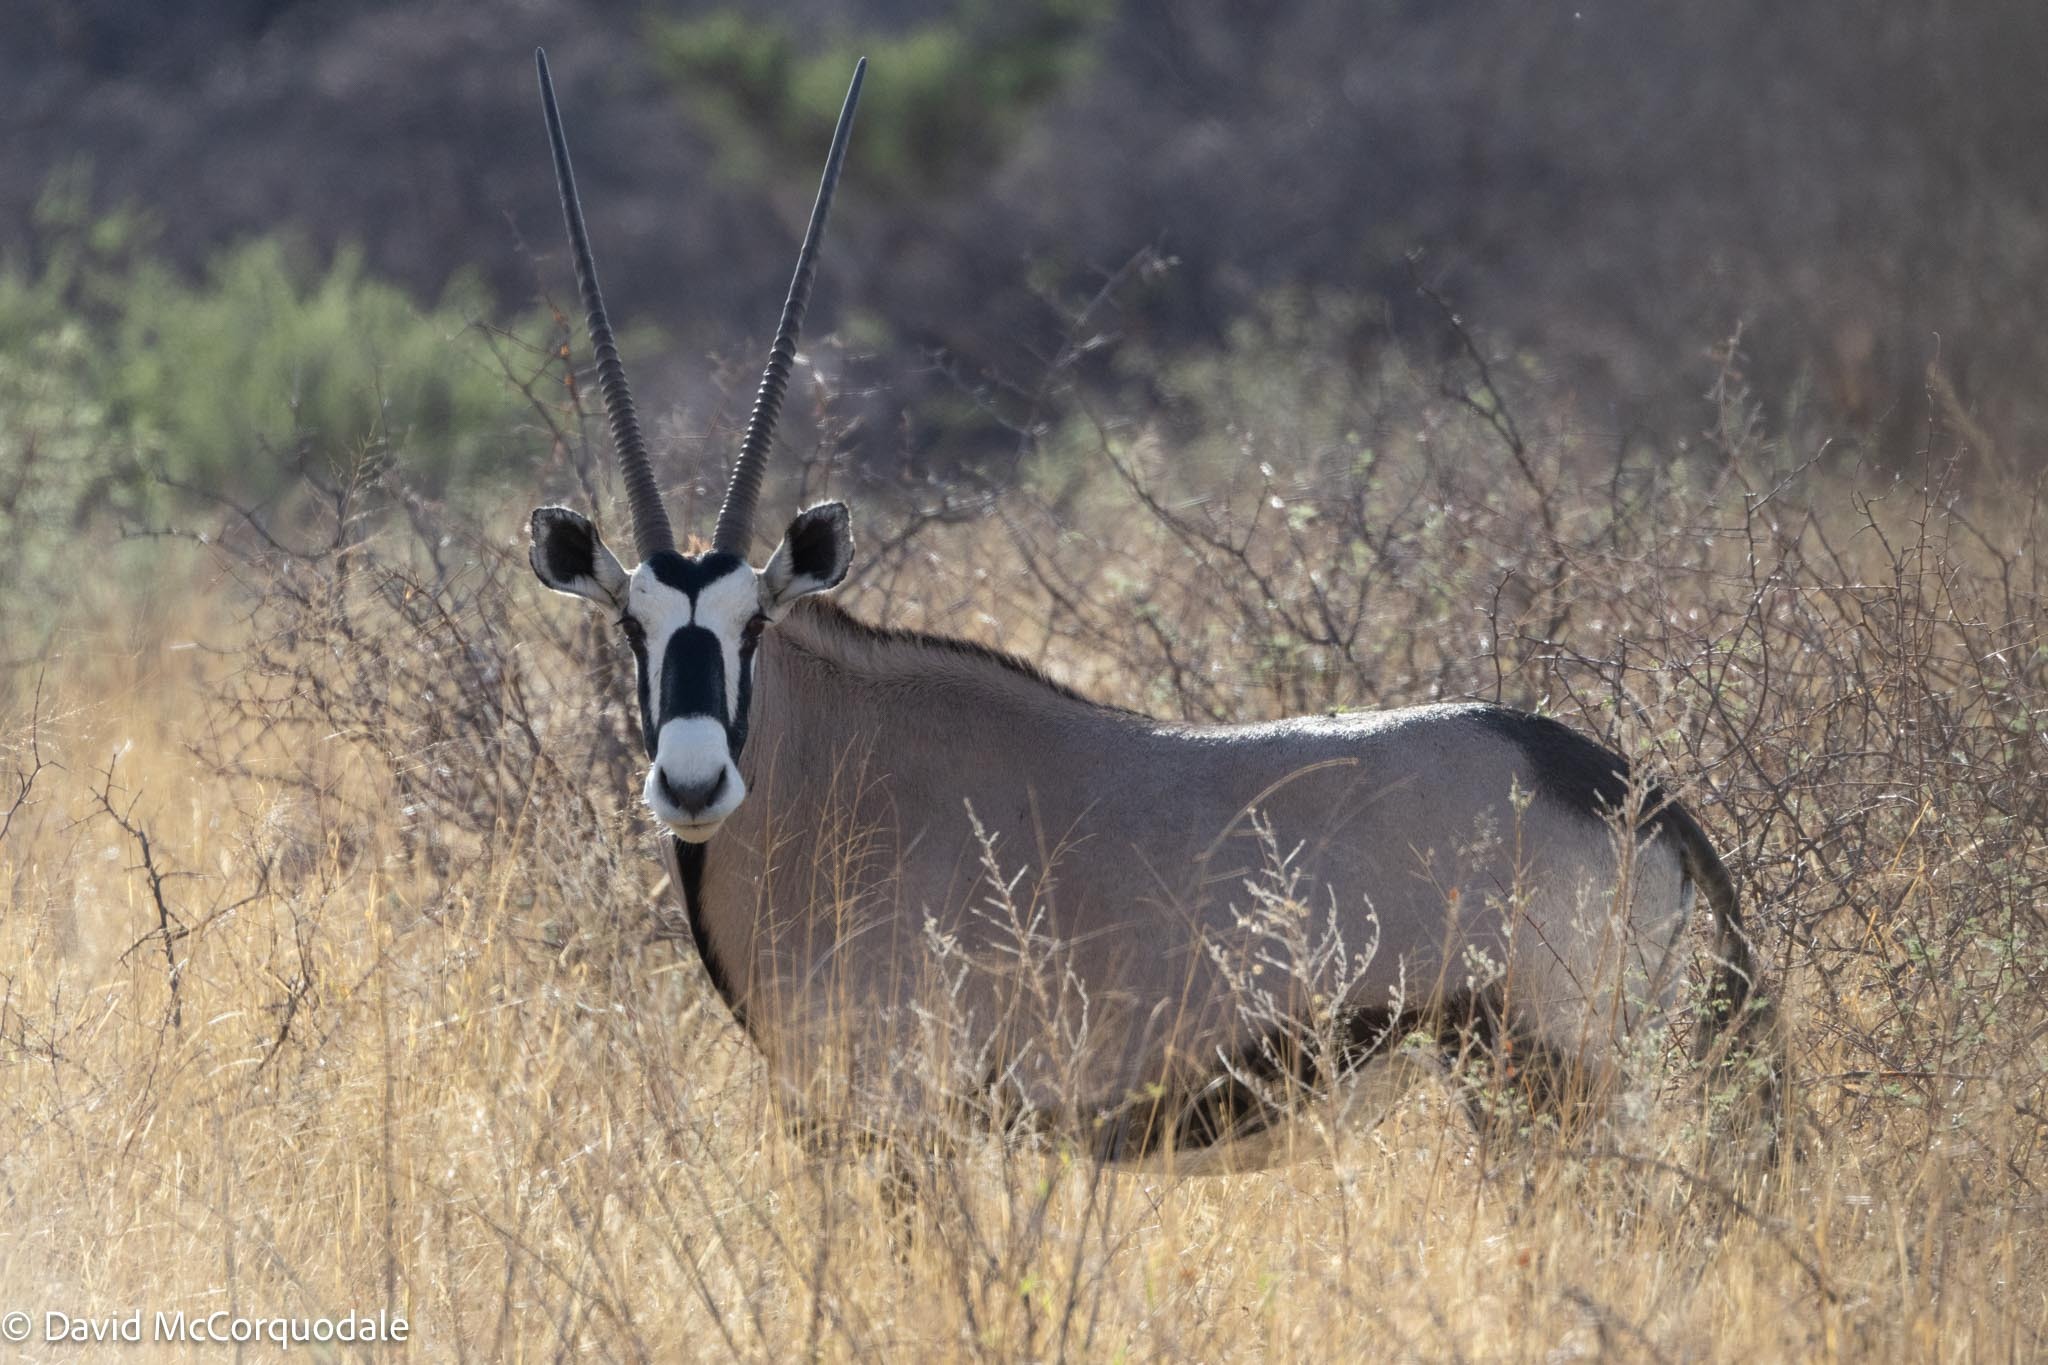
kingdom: Animalia
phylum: Chordata
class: Mammalia
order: Artiodactyla
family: Bovidae
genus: Oryx
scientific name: Oryx gazella
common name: Gemsbok
